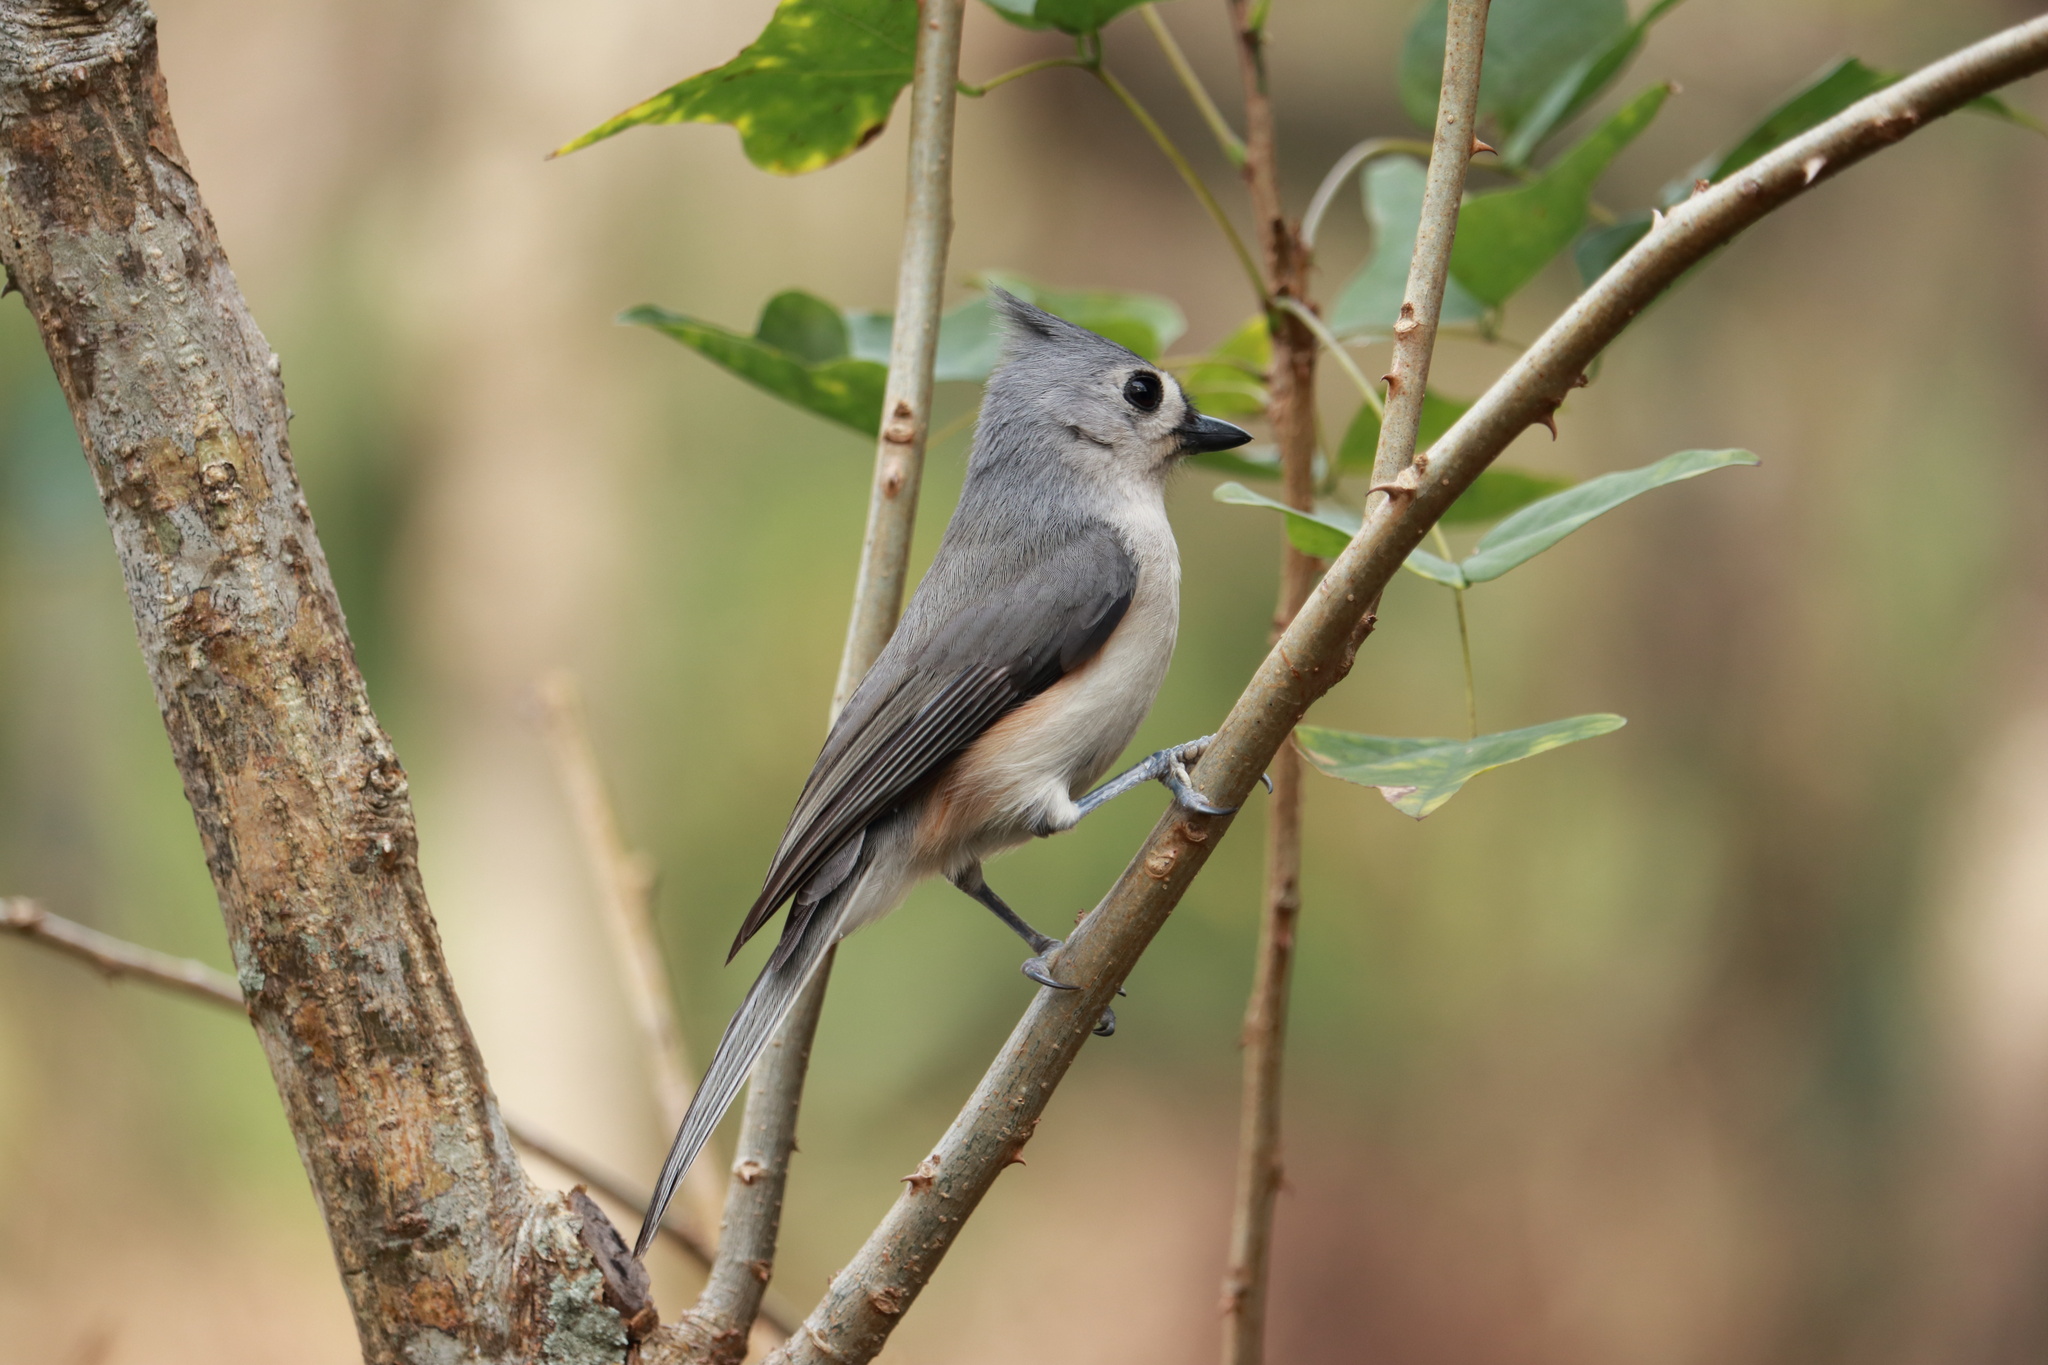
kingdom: Animalia
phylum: Chordata
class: Aves
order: Passeriformes
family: Paridae
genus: Baeolophus
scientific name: Baeolophus bicolor
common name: Tufted titmouse
